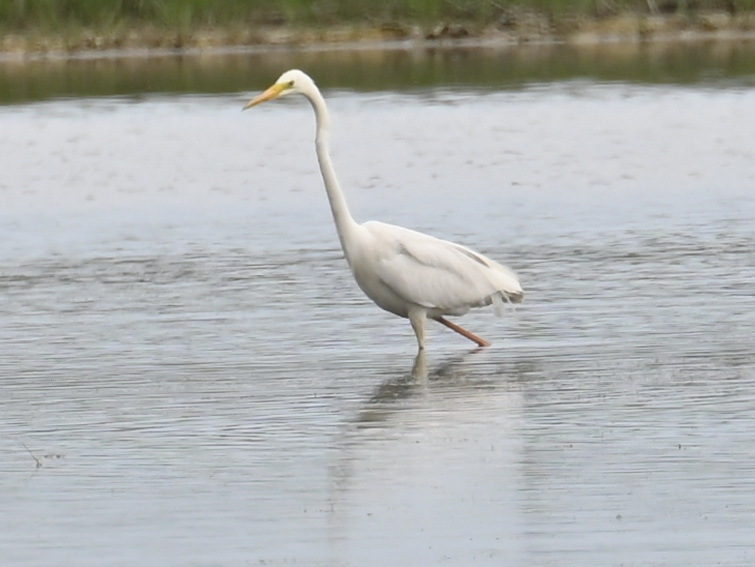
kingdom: Animalia
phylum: Chordata
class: Aves
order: Pelecaniformes
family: Ardeidae
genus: Ardea
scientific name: Ardea alba
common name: Great egret
